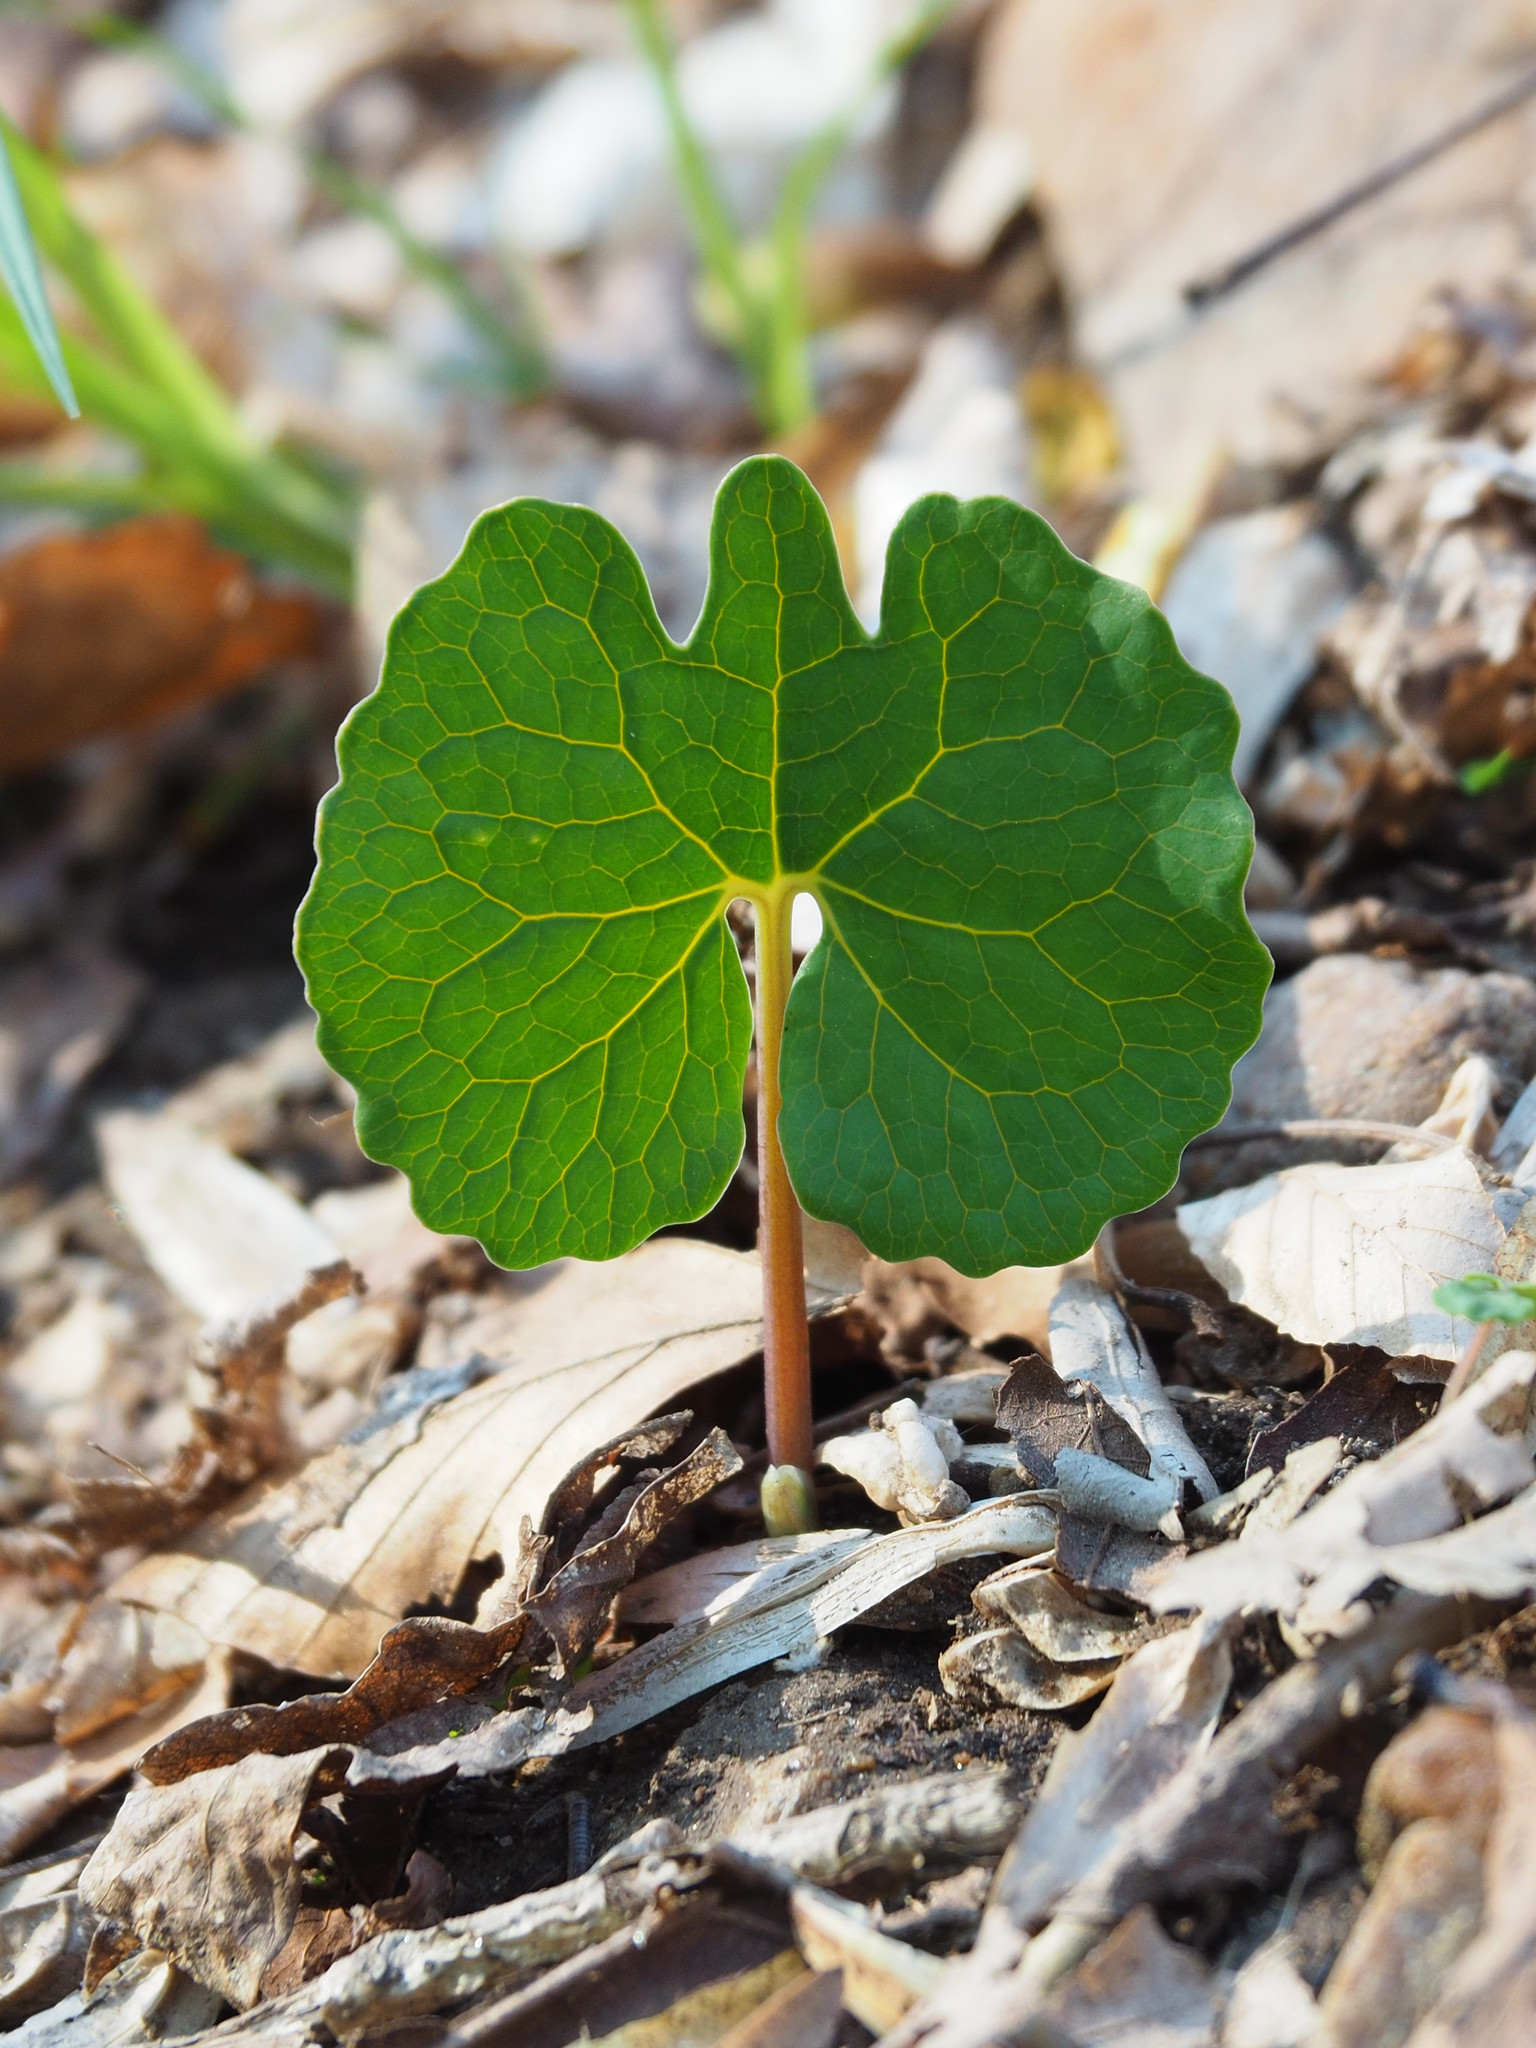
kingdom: Plantae
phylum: Tracheophyta
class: Magnoliopsida
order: Ranunculales
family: Papaveraceae
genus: Sanguinaria
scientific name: Sanguinaria canadensis
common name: Bloodroot
